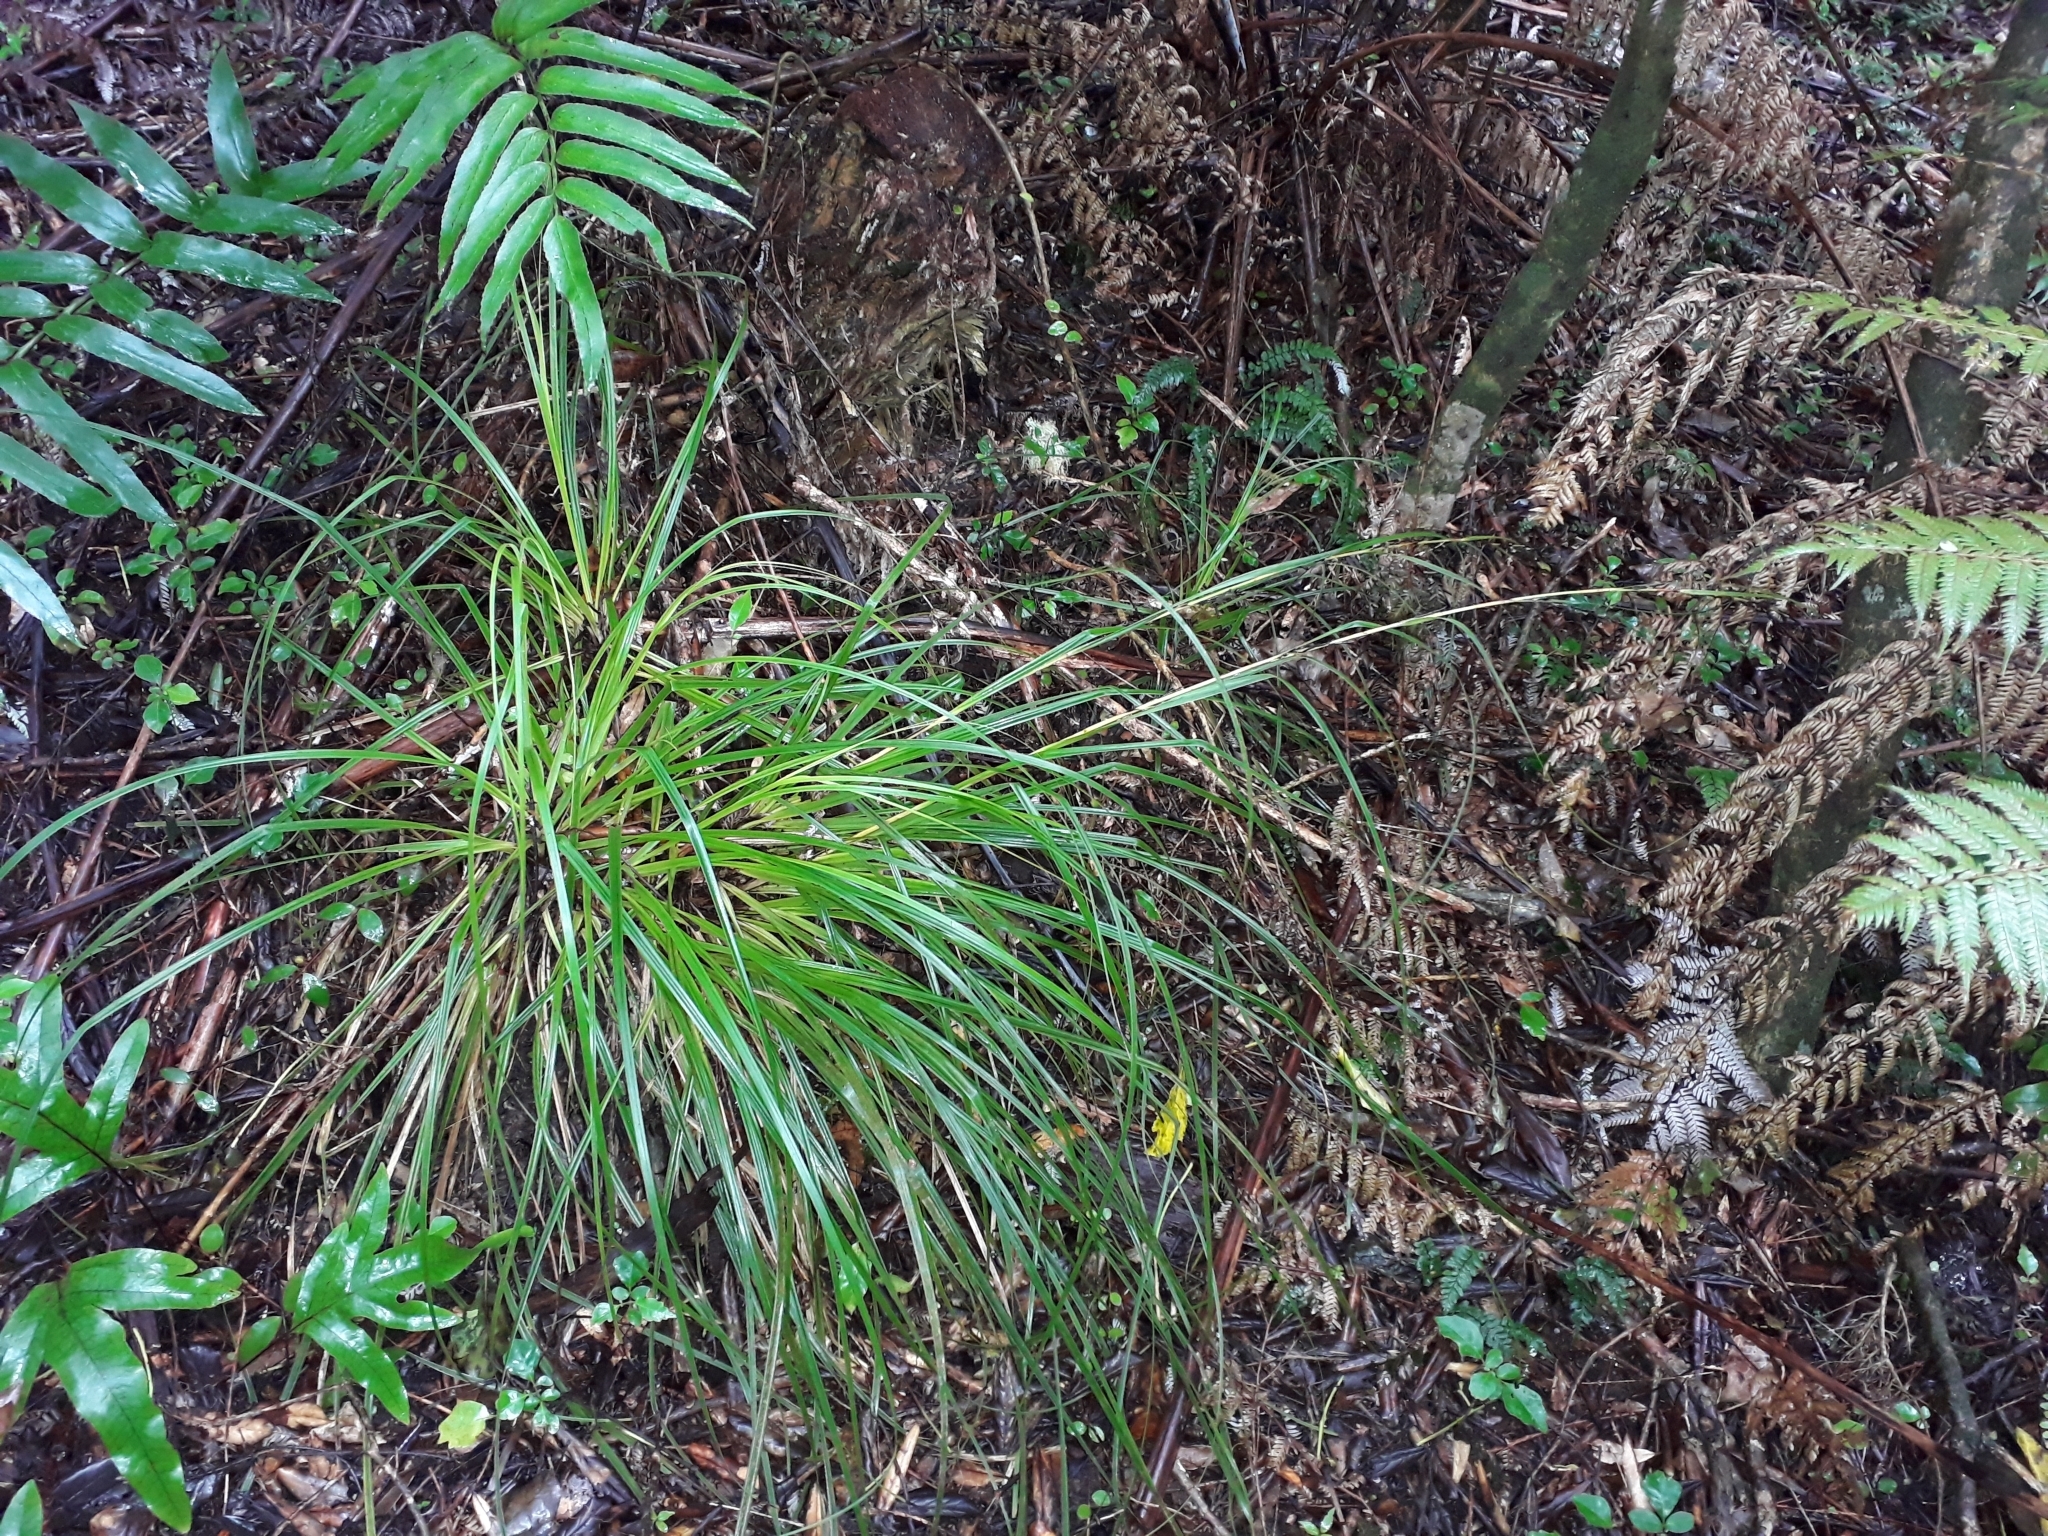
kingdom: Plantae
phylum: Tracheophyta
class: Liliopsida
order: Poales
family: Cyperaceae
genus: Gahnia
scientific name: Gahnia pauciflora
